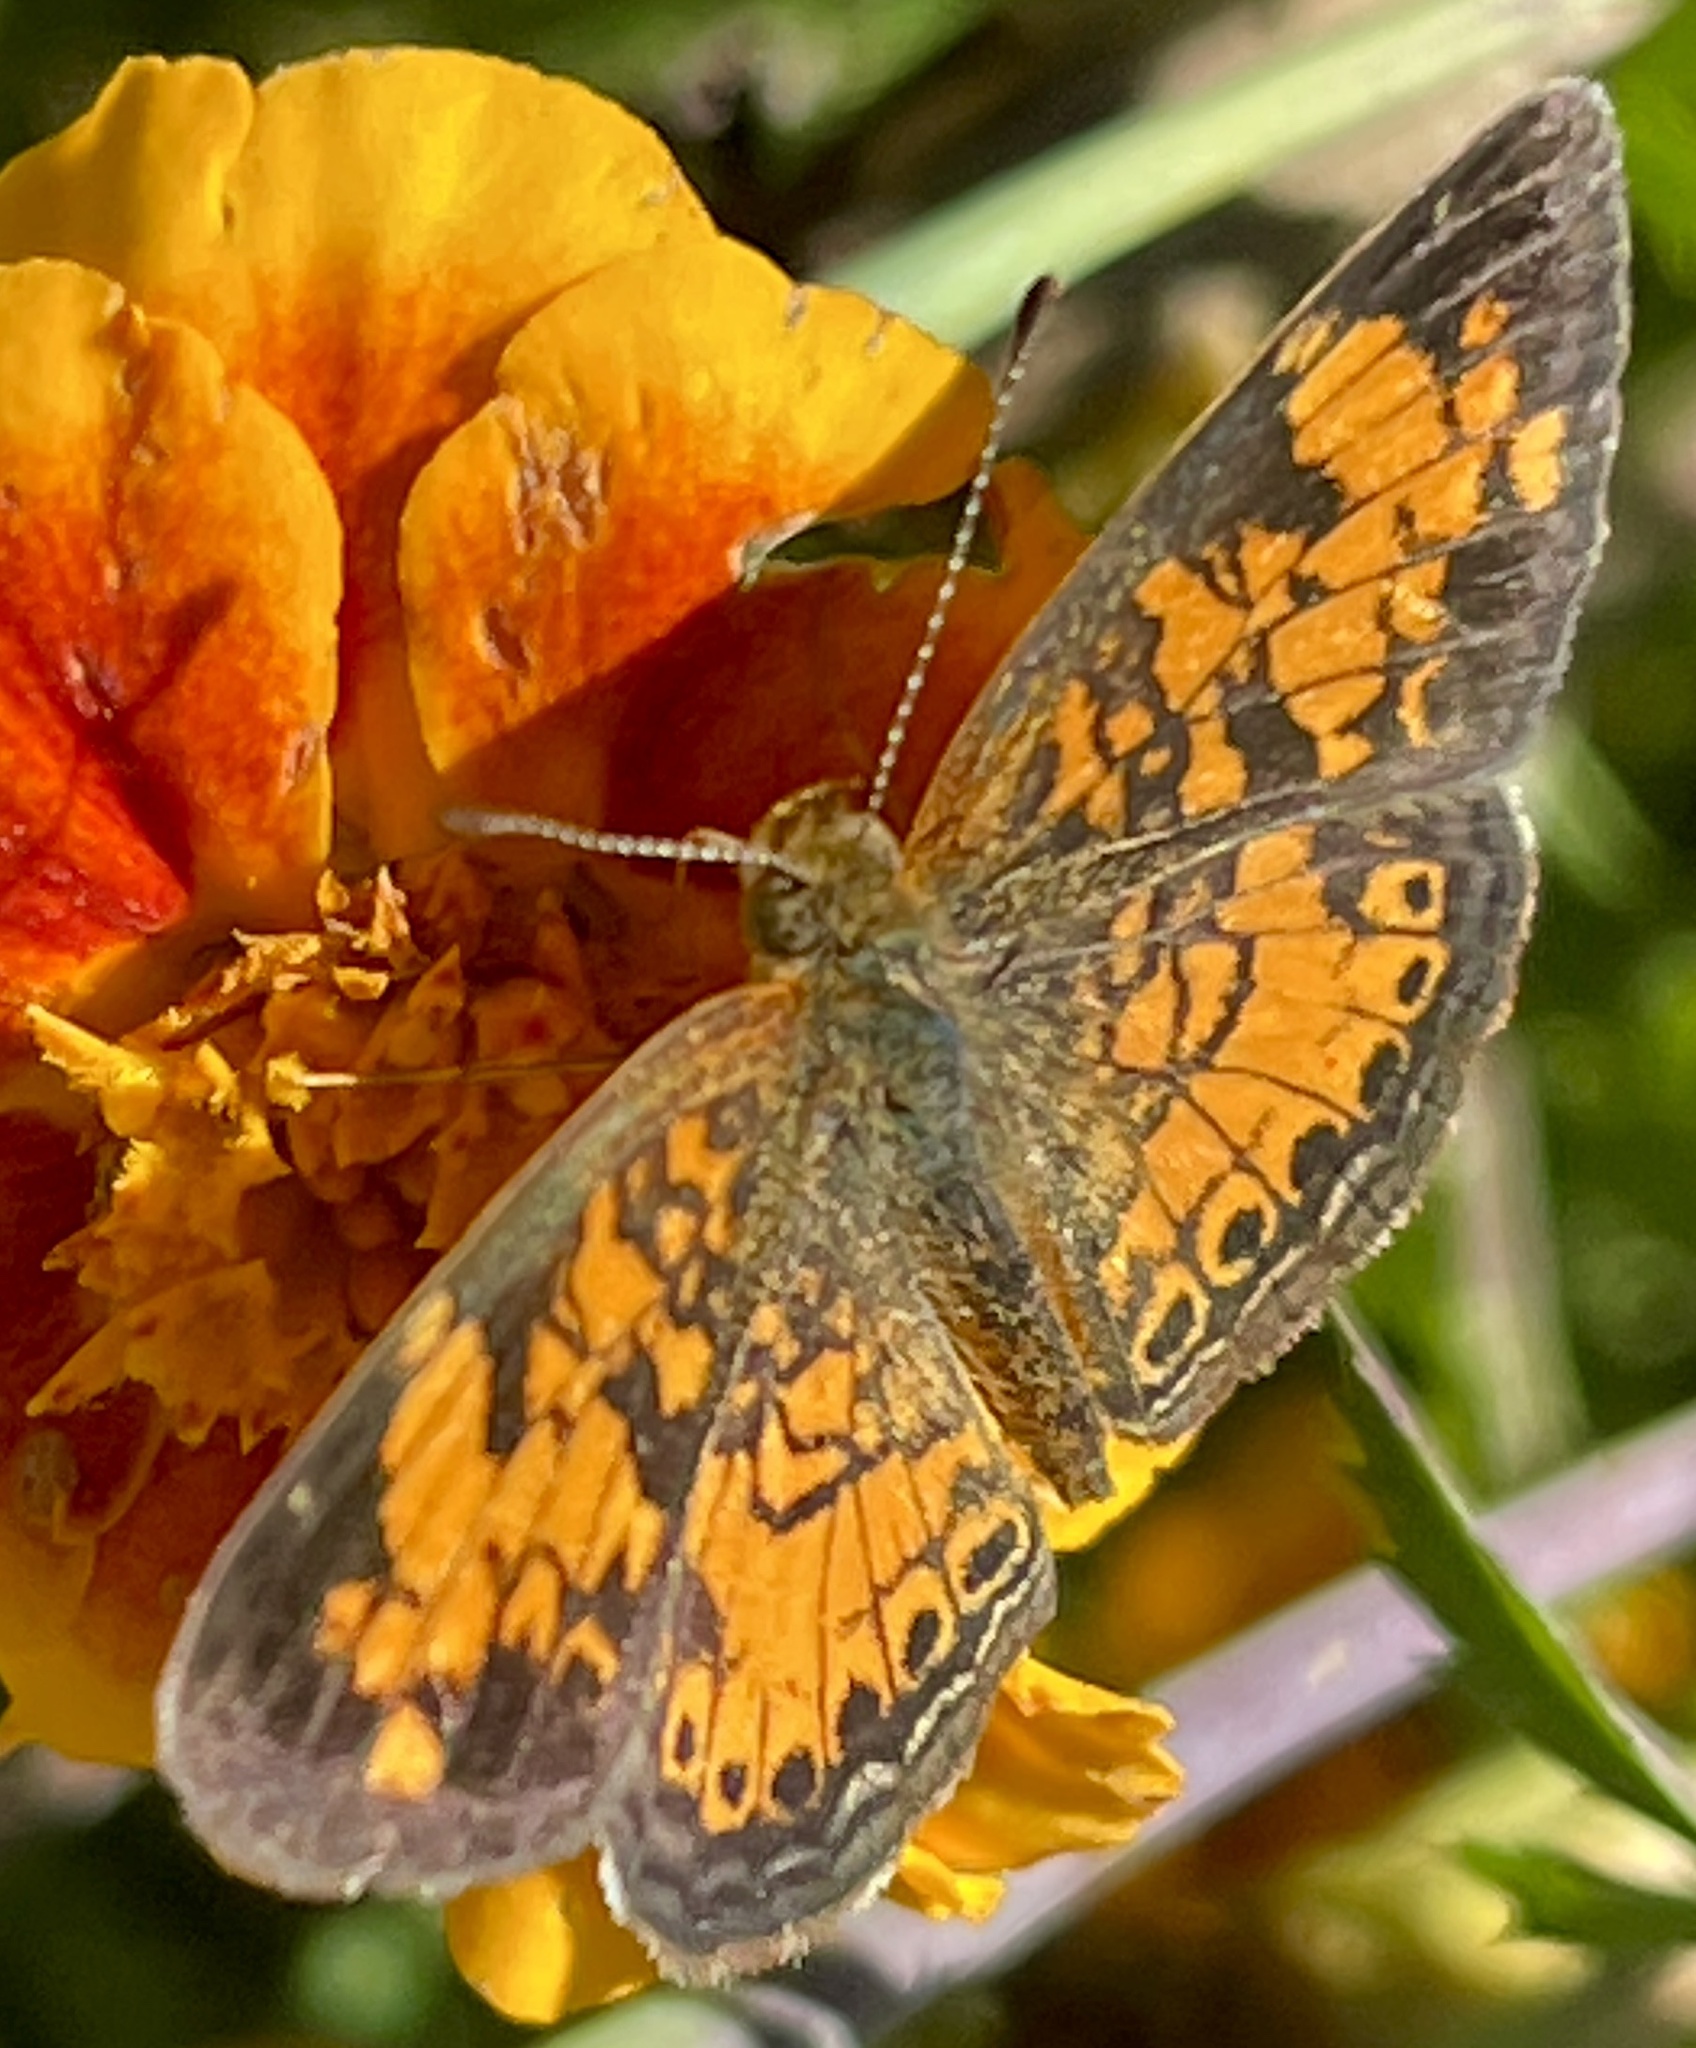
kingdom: Animalia
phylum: Arthropoda
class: Insecta
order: Lepidoptera
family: Nymphalidae
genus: Phyciodes
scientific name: Phyciodes tharos
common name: Pearl crescent
